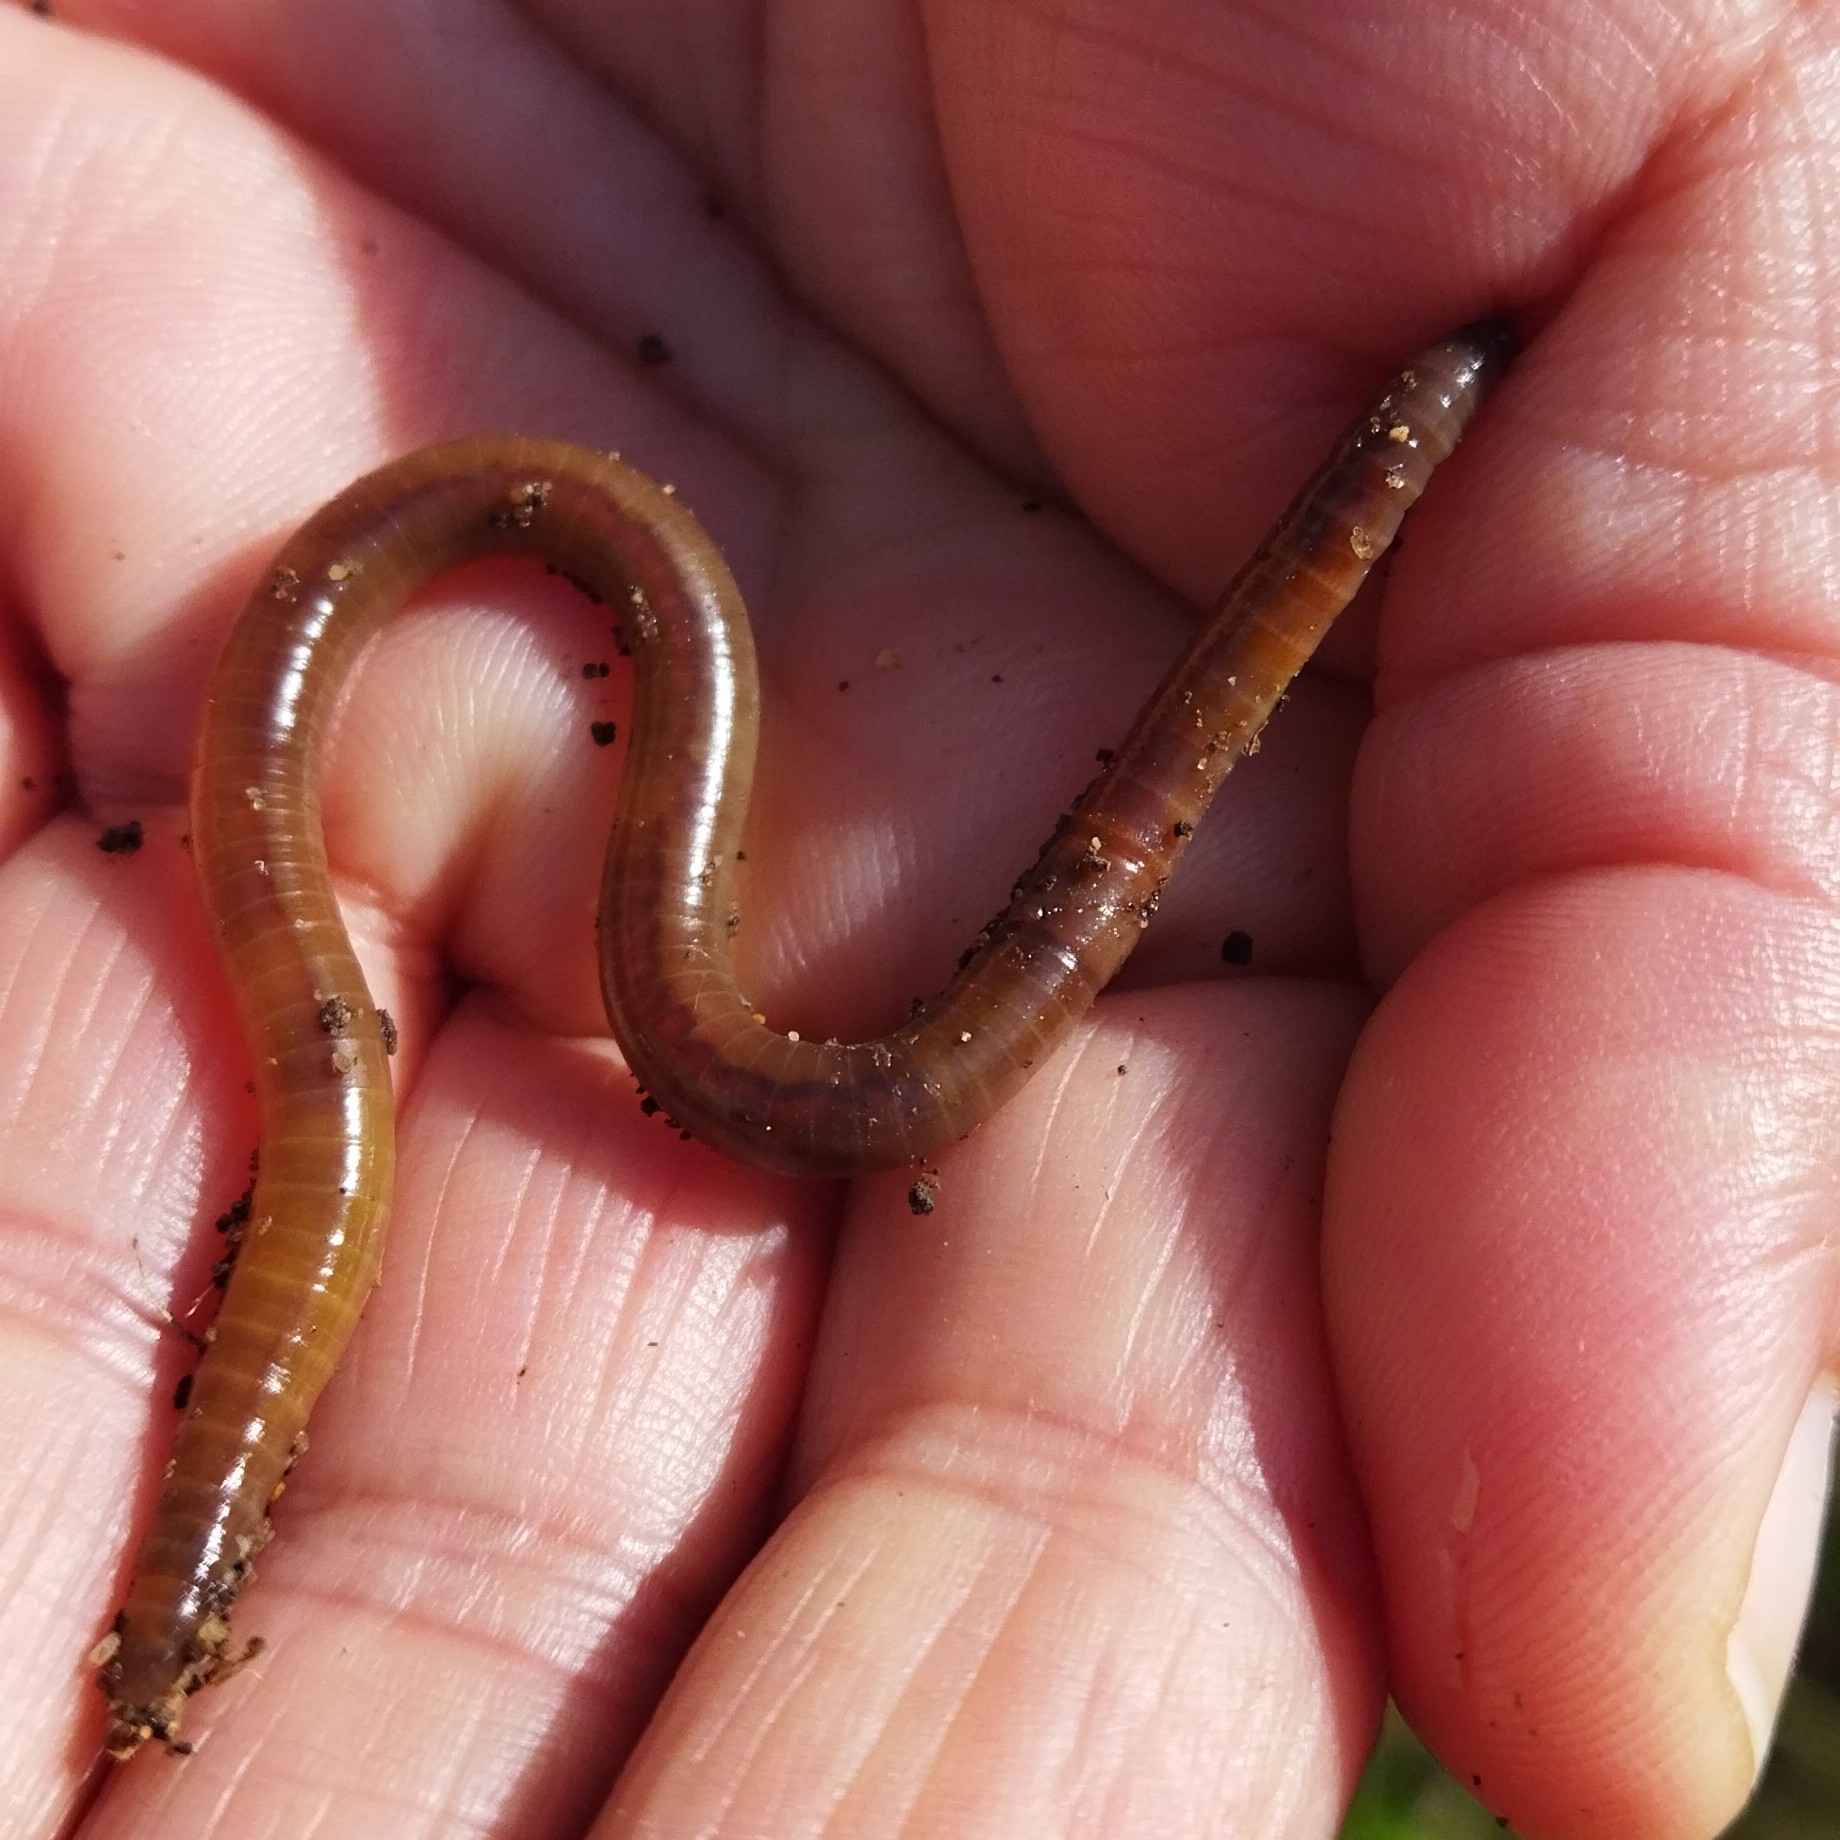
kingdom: Animalia
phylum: Annelida
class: Clitellata
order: Crassiclitellata
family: Lumbricidae
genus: Lumbricus
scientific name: Lumbricus terrestris
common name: Common earthworm
